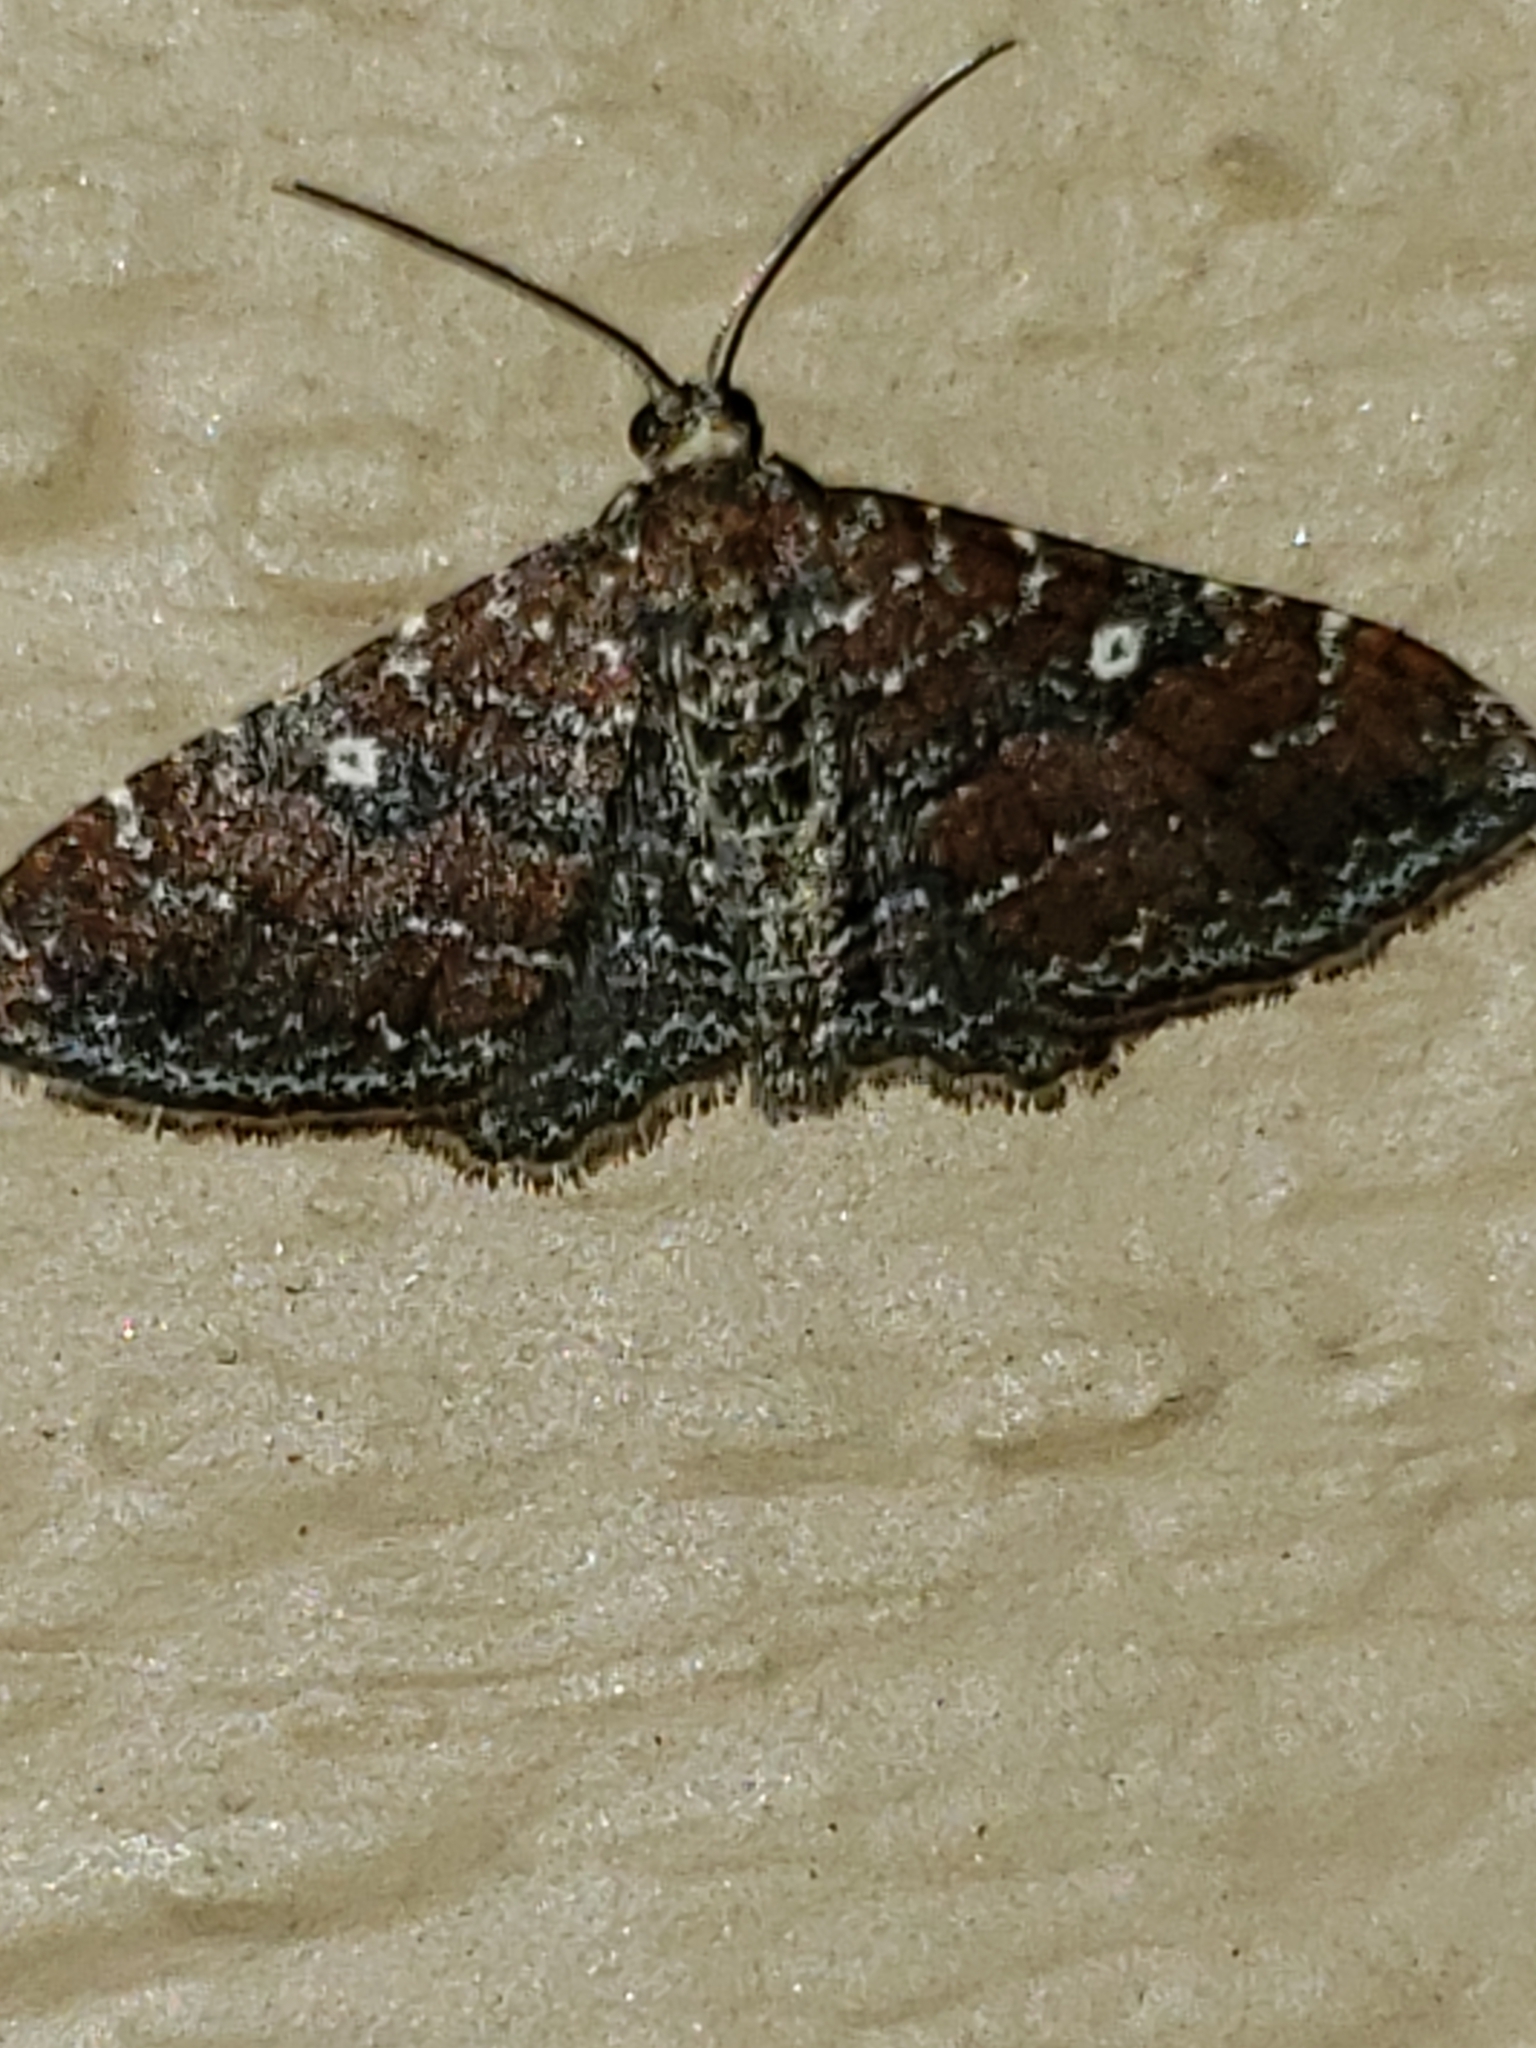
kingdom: Animalia
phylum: Arthropoda
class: Insecta
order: Lepidoptera
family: Geometridae
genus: Orthonama
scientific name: Orthonama obstipata
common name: The gem
